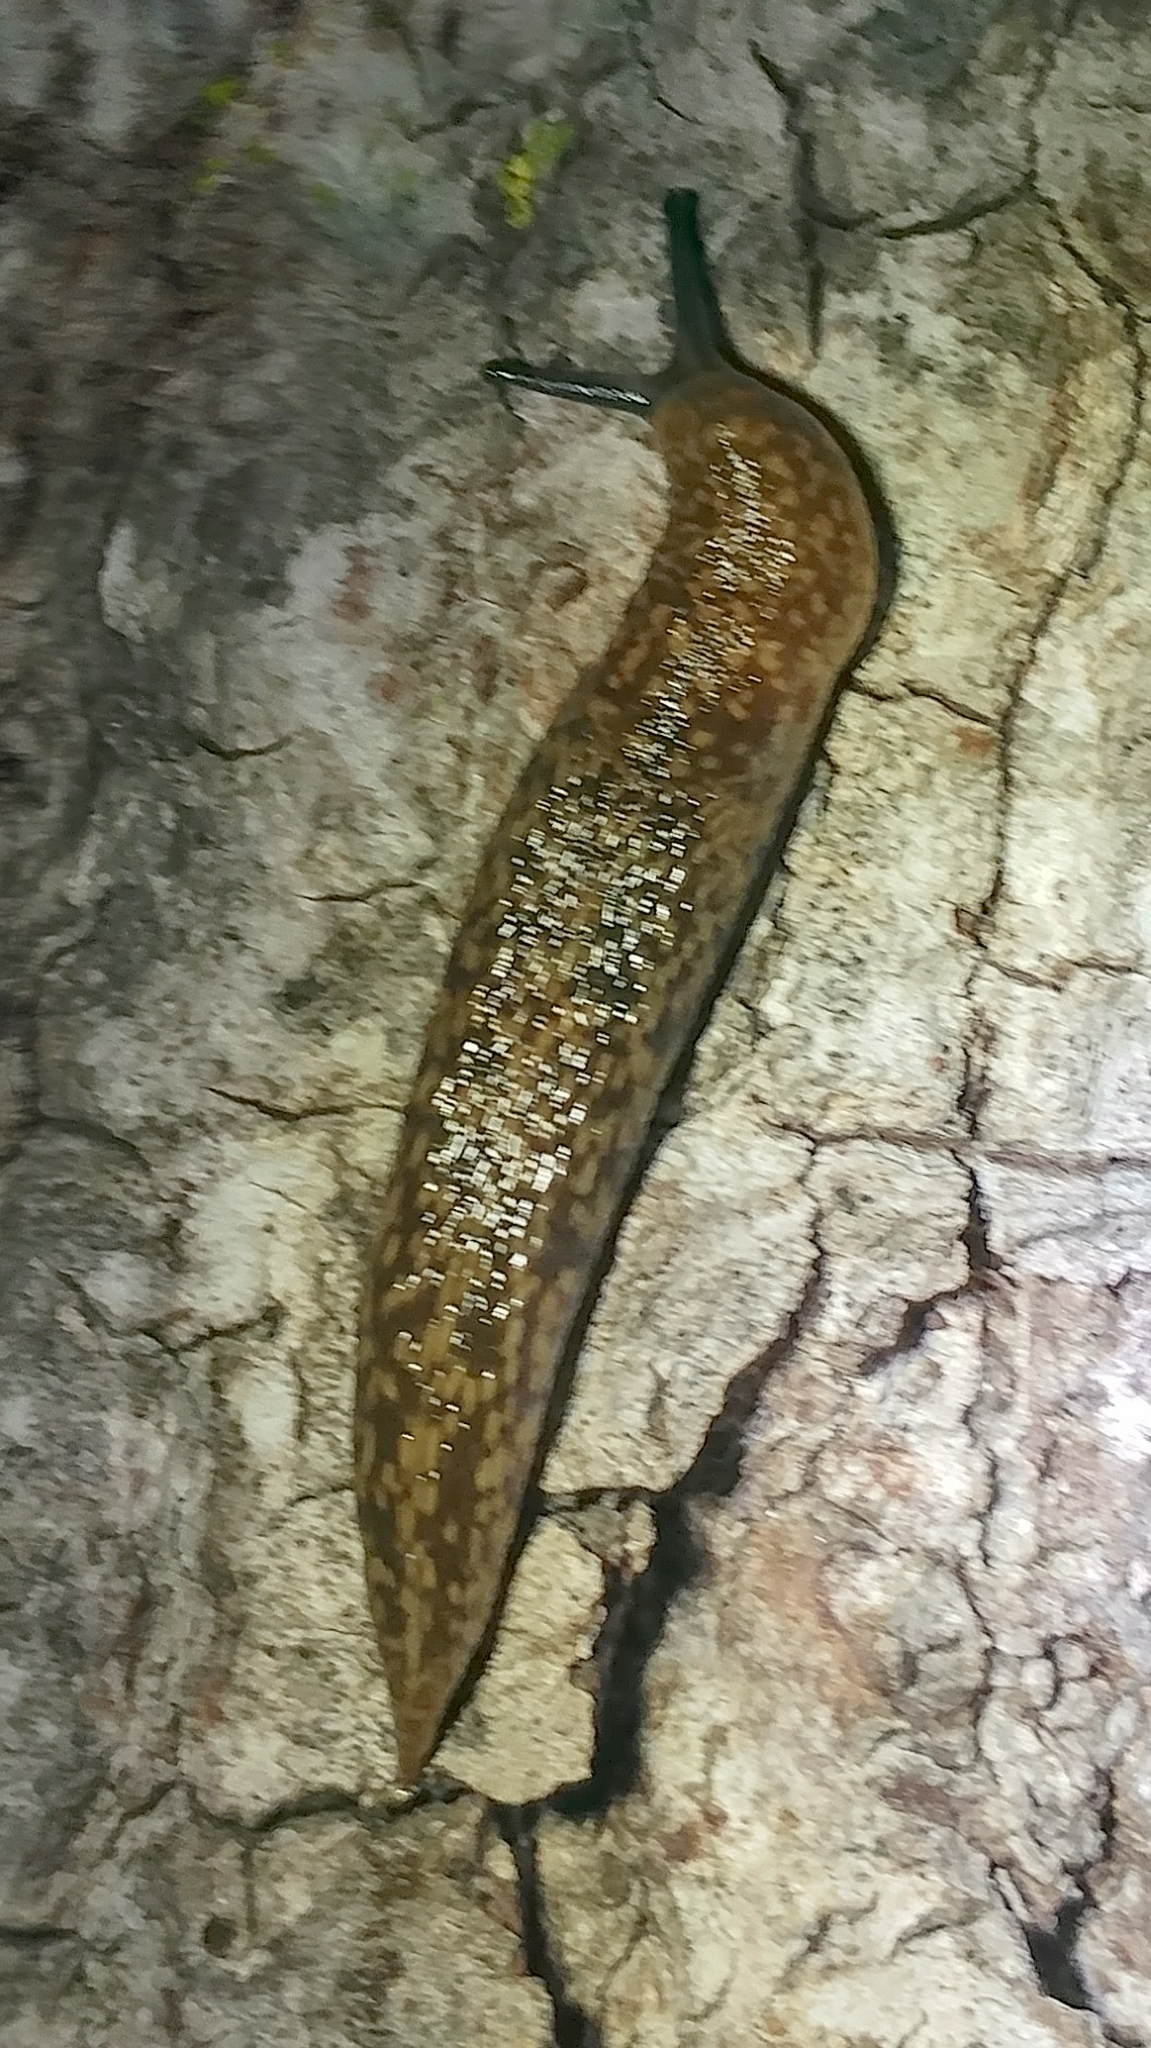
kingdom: Animalia
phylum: Mollusca
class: Gastropoda
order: Stylommatophora
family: Limacidae
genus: Limacus
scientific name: Limacus flavus
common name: Yellow gardenslug
